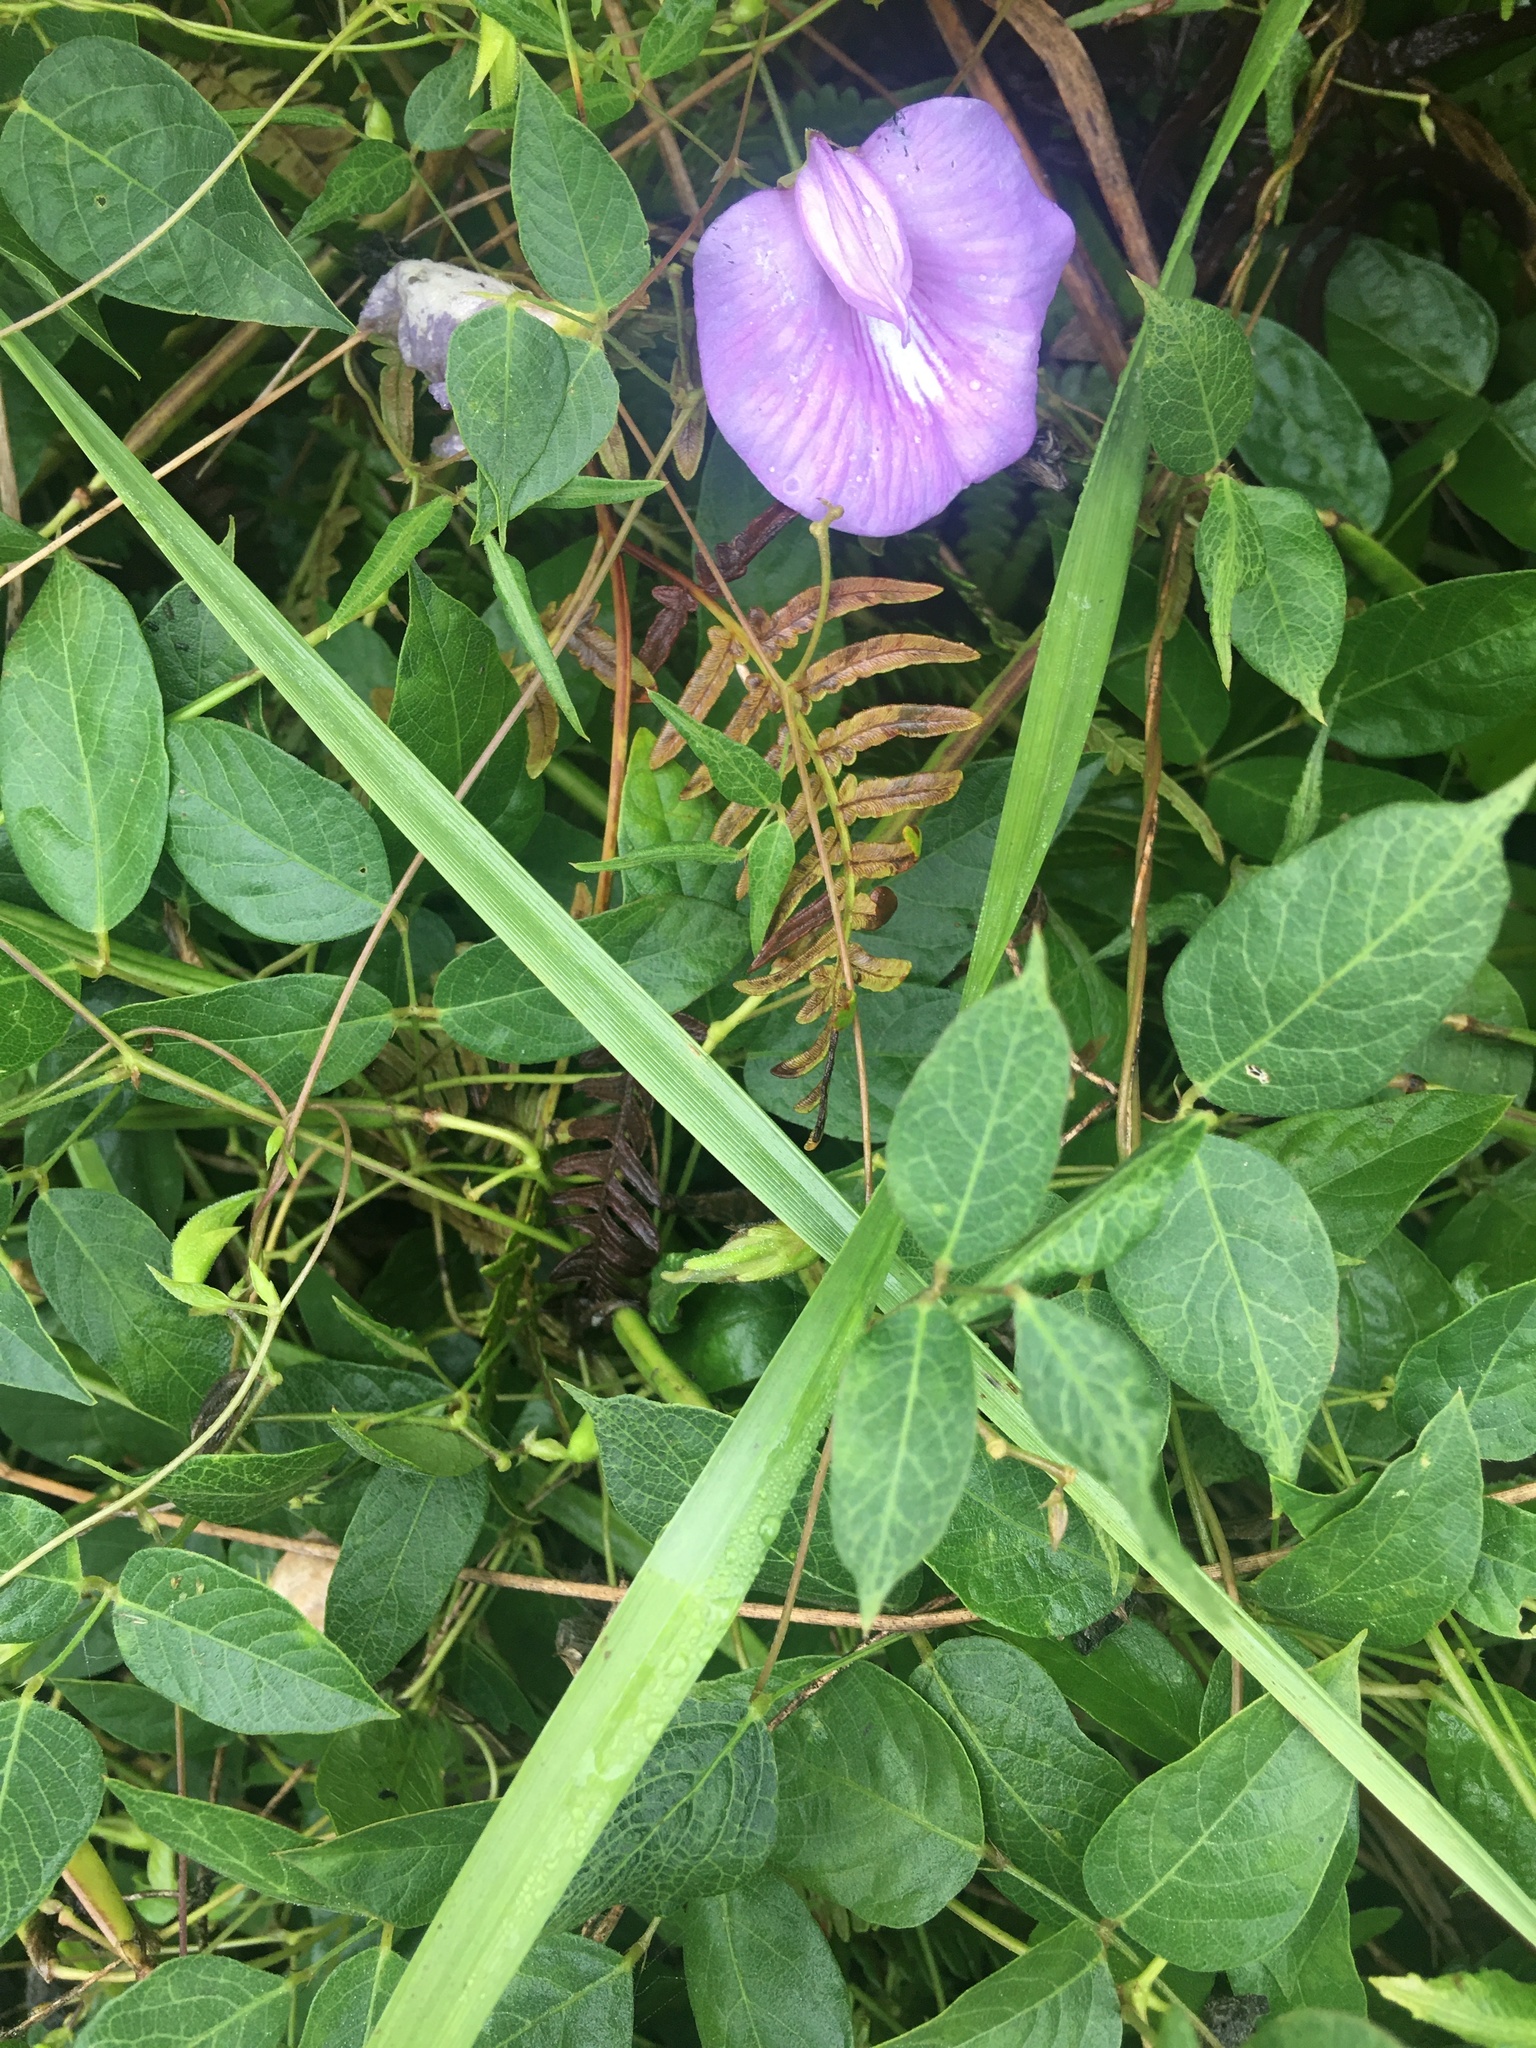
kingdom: Plantae
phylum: Tracheophyta
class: Magnoliopsida
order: Fabales
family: Fabaceae
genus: Centrosema
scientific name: Centrosema virginianum
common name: Butterfly-pea
